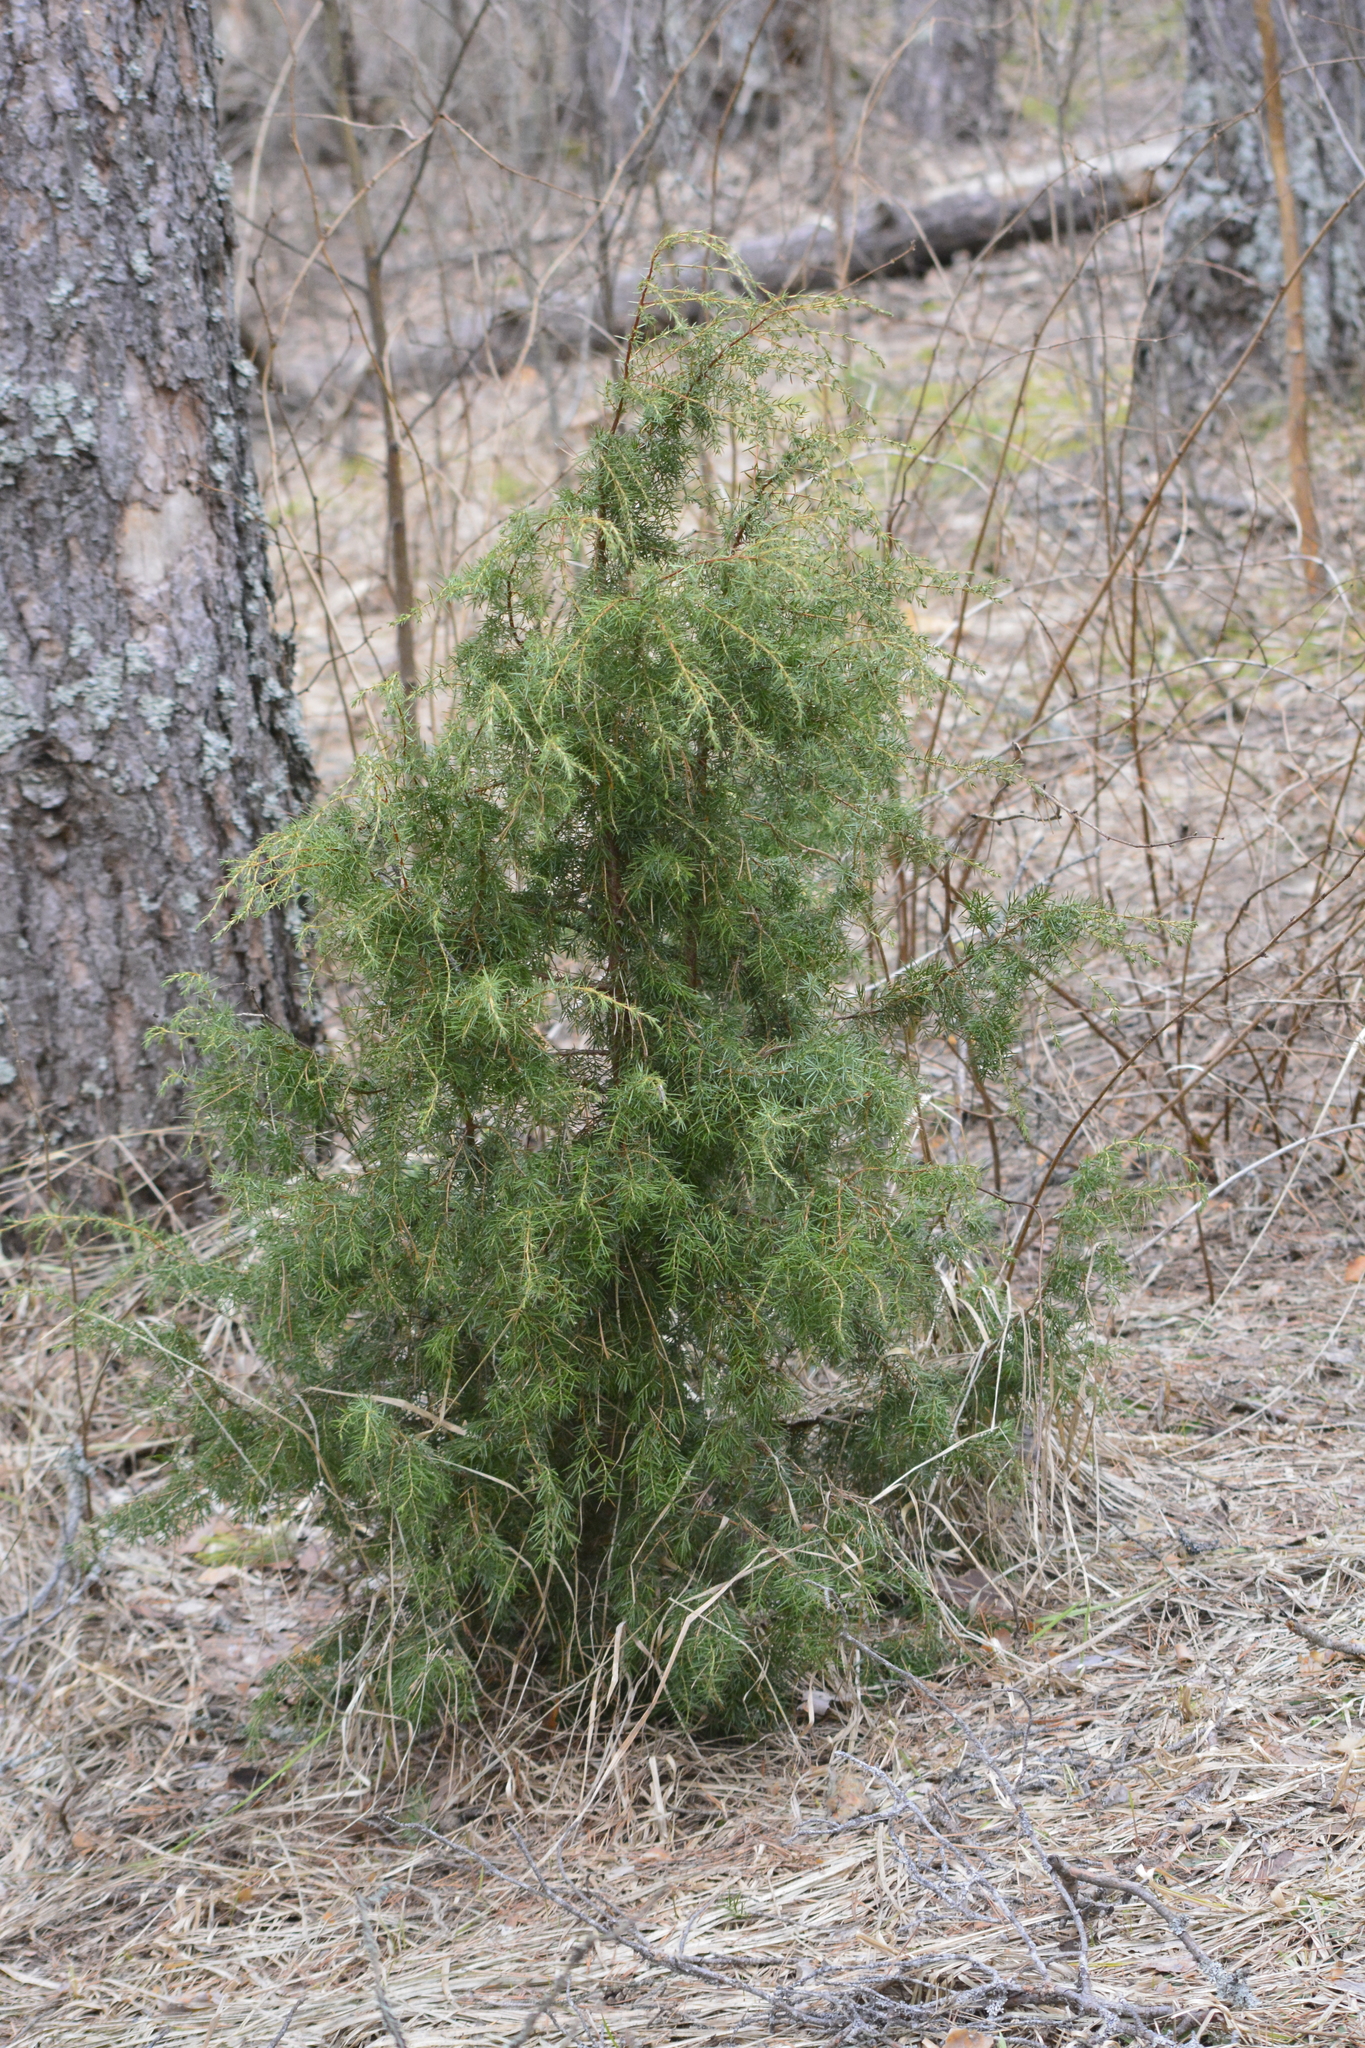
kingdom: Plantae
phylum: Tracheophyta
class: Pinopsida
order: Pinales
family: Cupressaceae
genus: Juniperus
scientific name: Juniperus communis
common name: Common juniper
